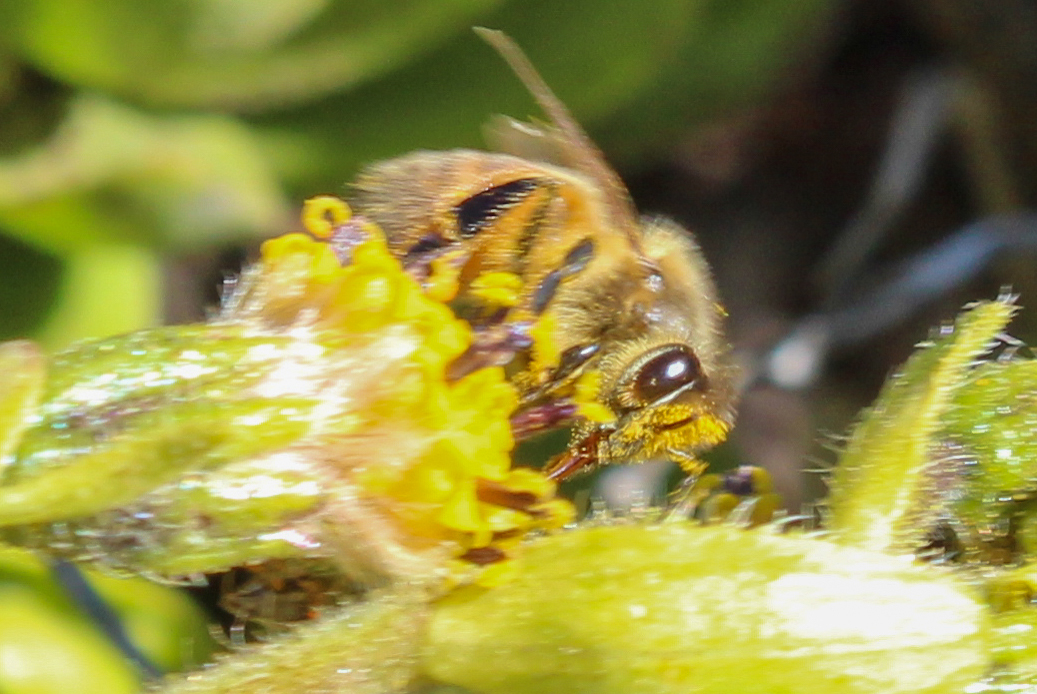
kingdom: Animalia
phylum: Arthropoda
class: Insecta
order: Hymenoptera
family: Apidae
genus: Apis
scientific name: Apis mellifera
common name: Honey bee
